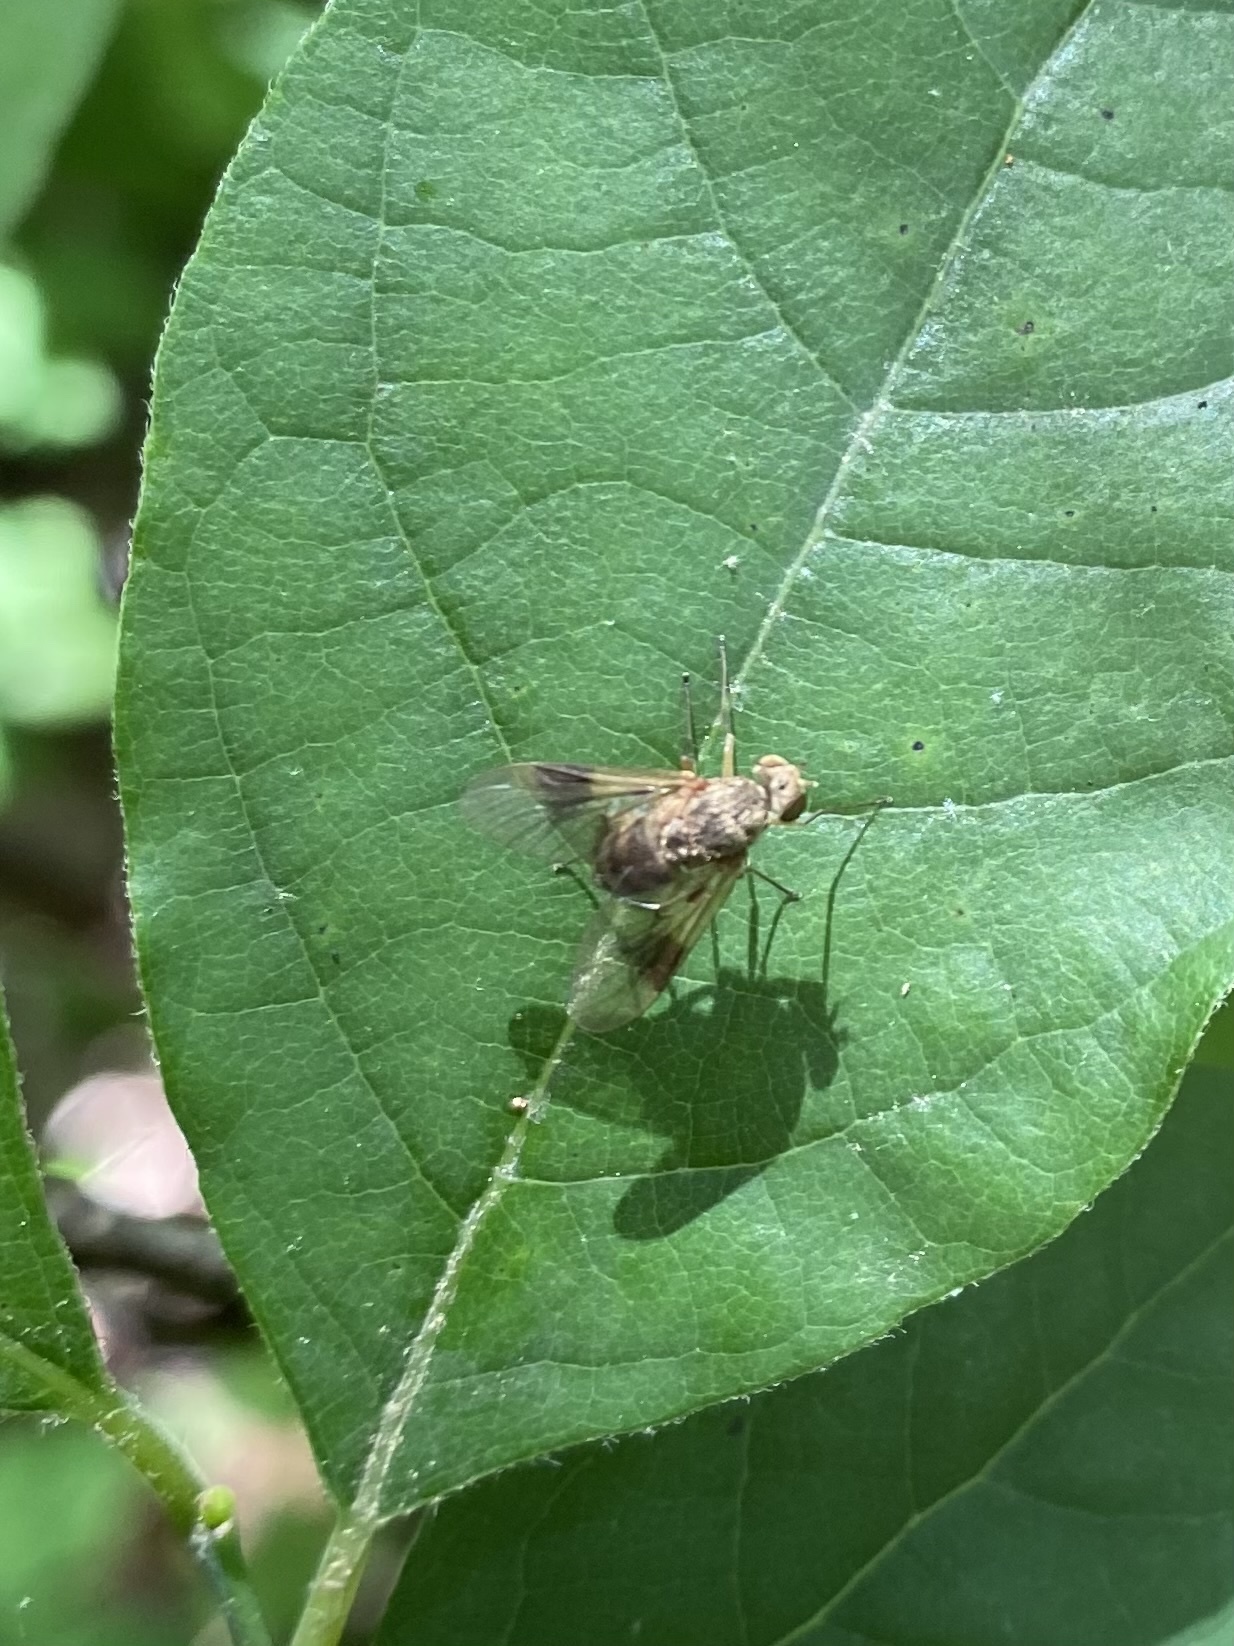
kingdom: Animalia
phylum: Arthropoda
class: Insecta
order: Diptera
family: Rhagionidae
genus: Chrysopilus
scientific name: Chrysopilus quadratus
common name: Quadrate snipe fly
